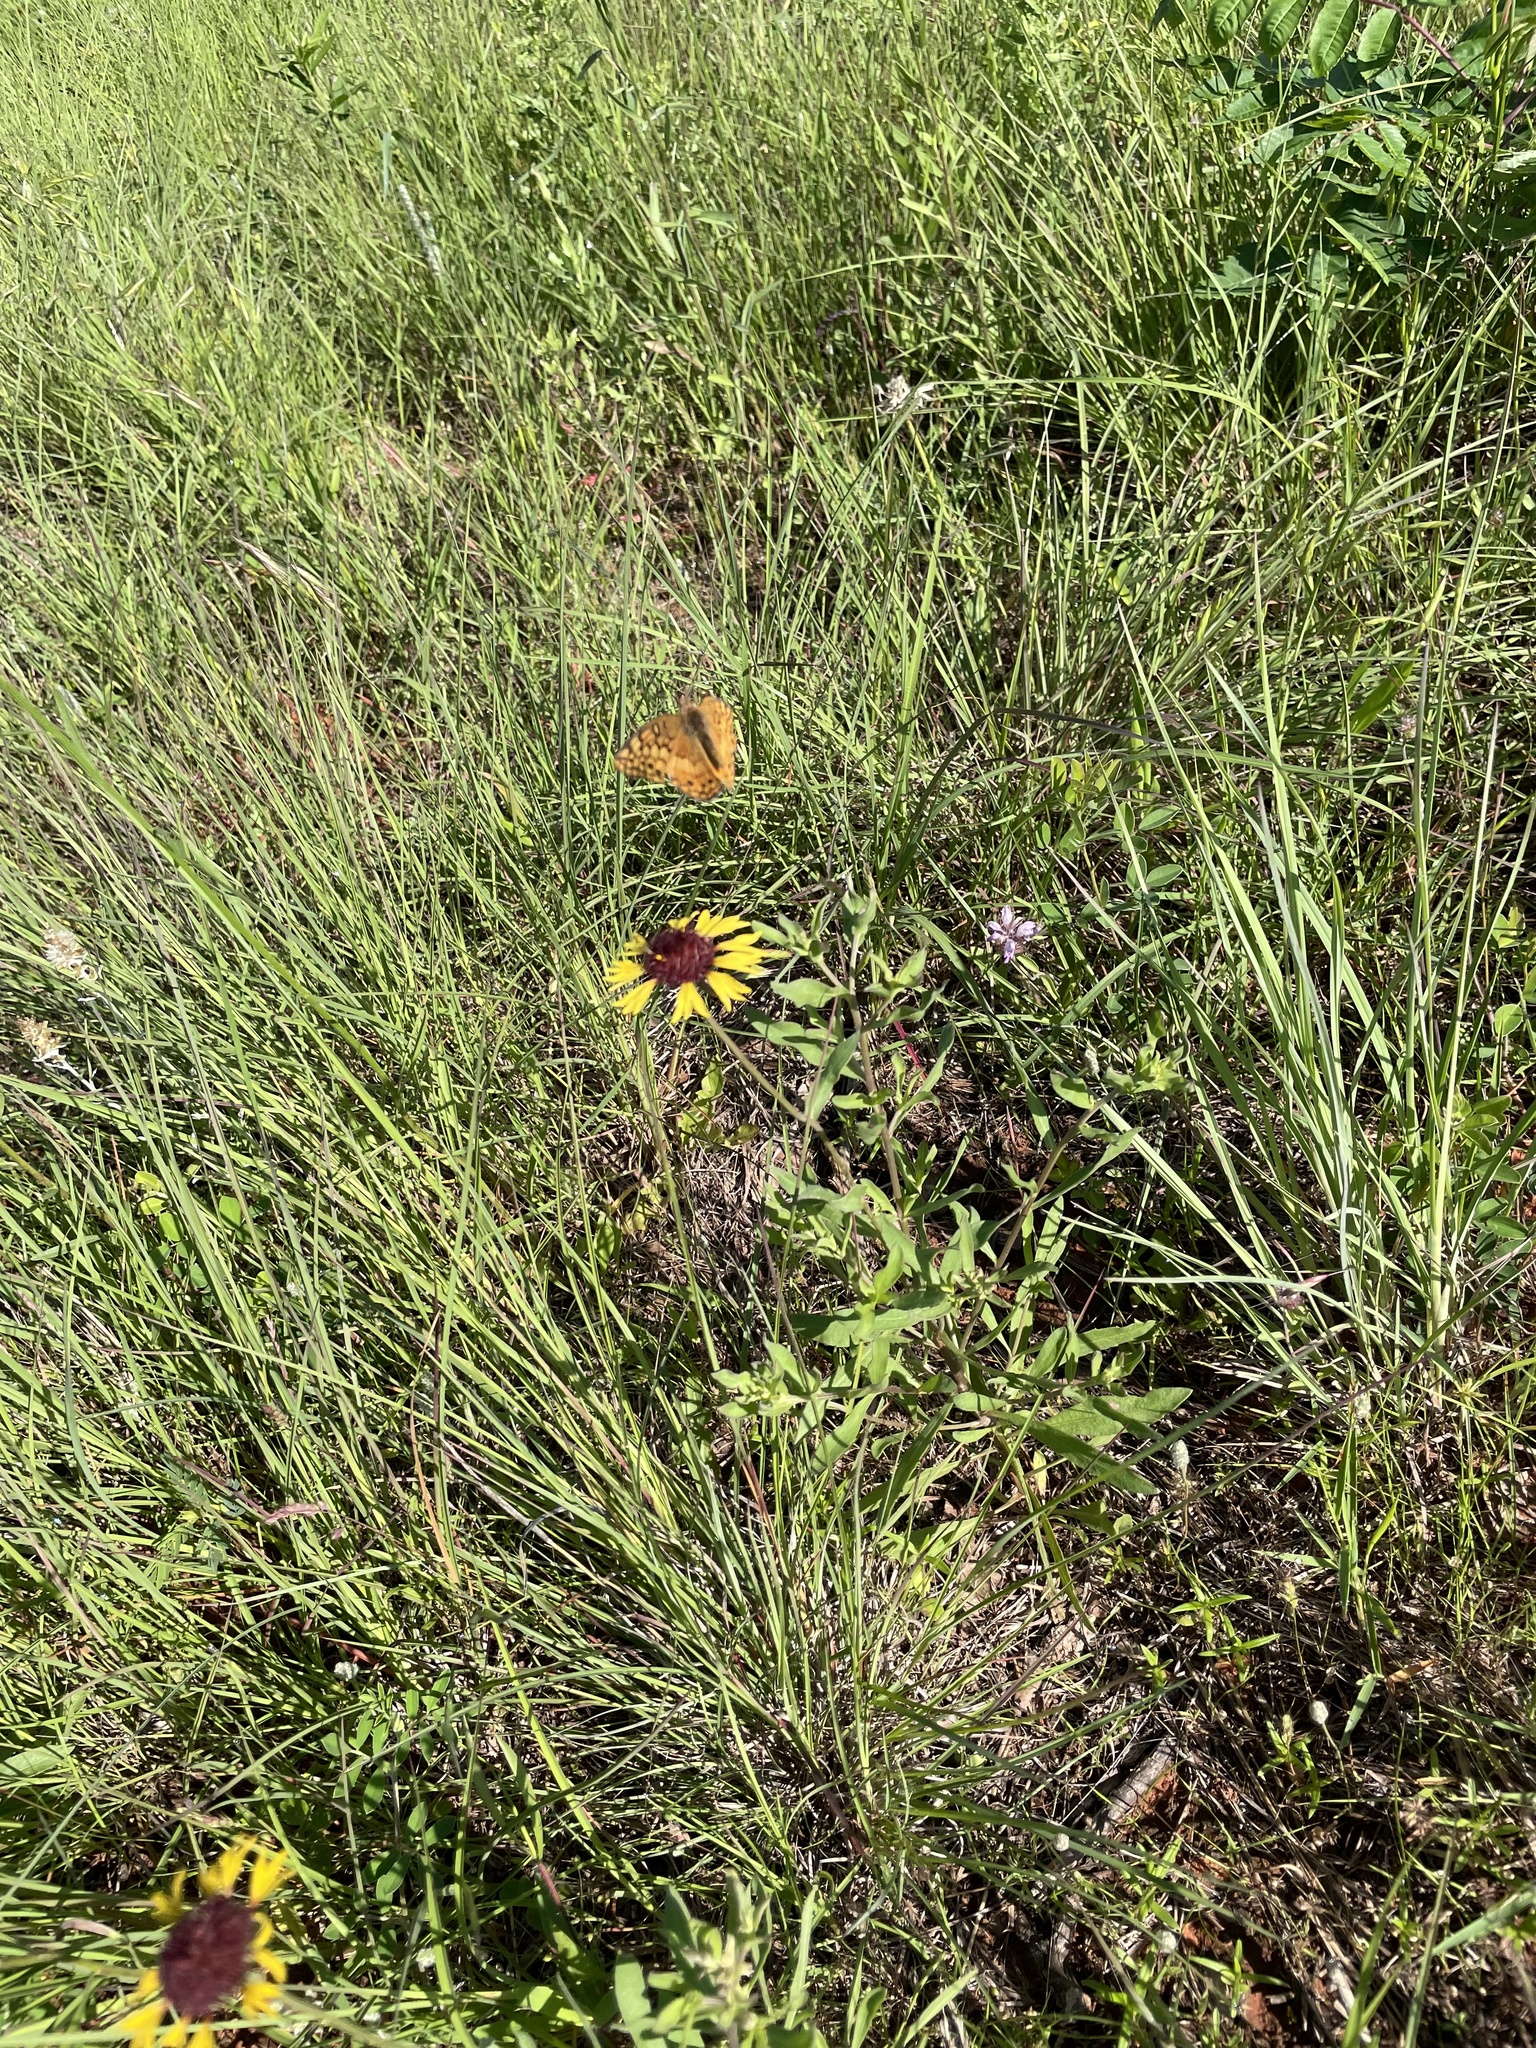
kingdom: Animalia
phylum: Arthropoda
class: Insecta
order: Lepidoptera
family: Nymphalidae
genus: Euptoieta
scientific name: Euptoieta claudia
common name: Variegated fritillary
